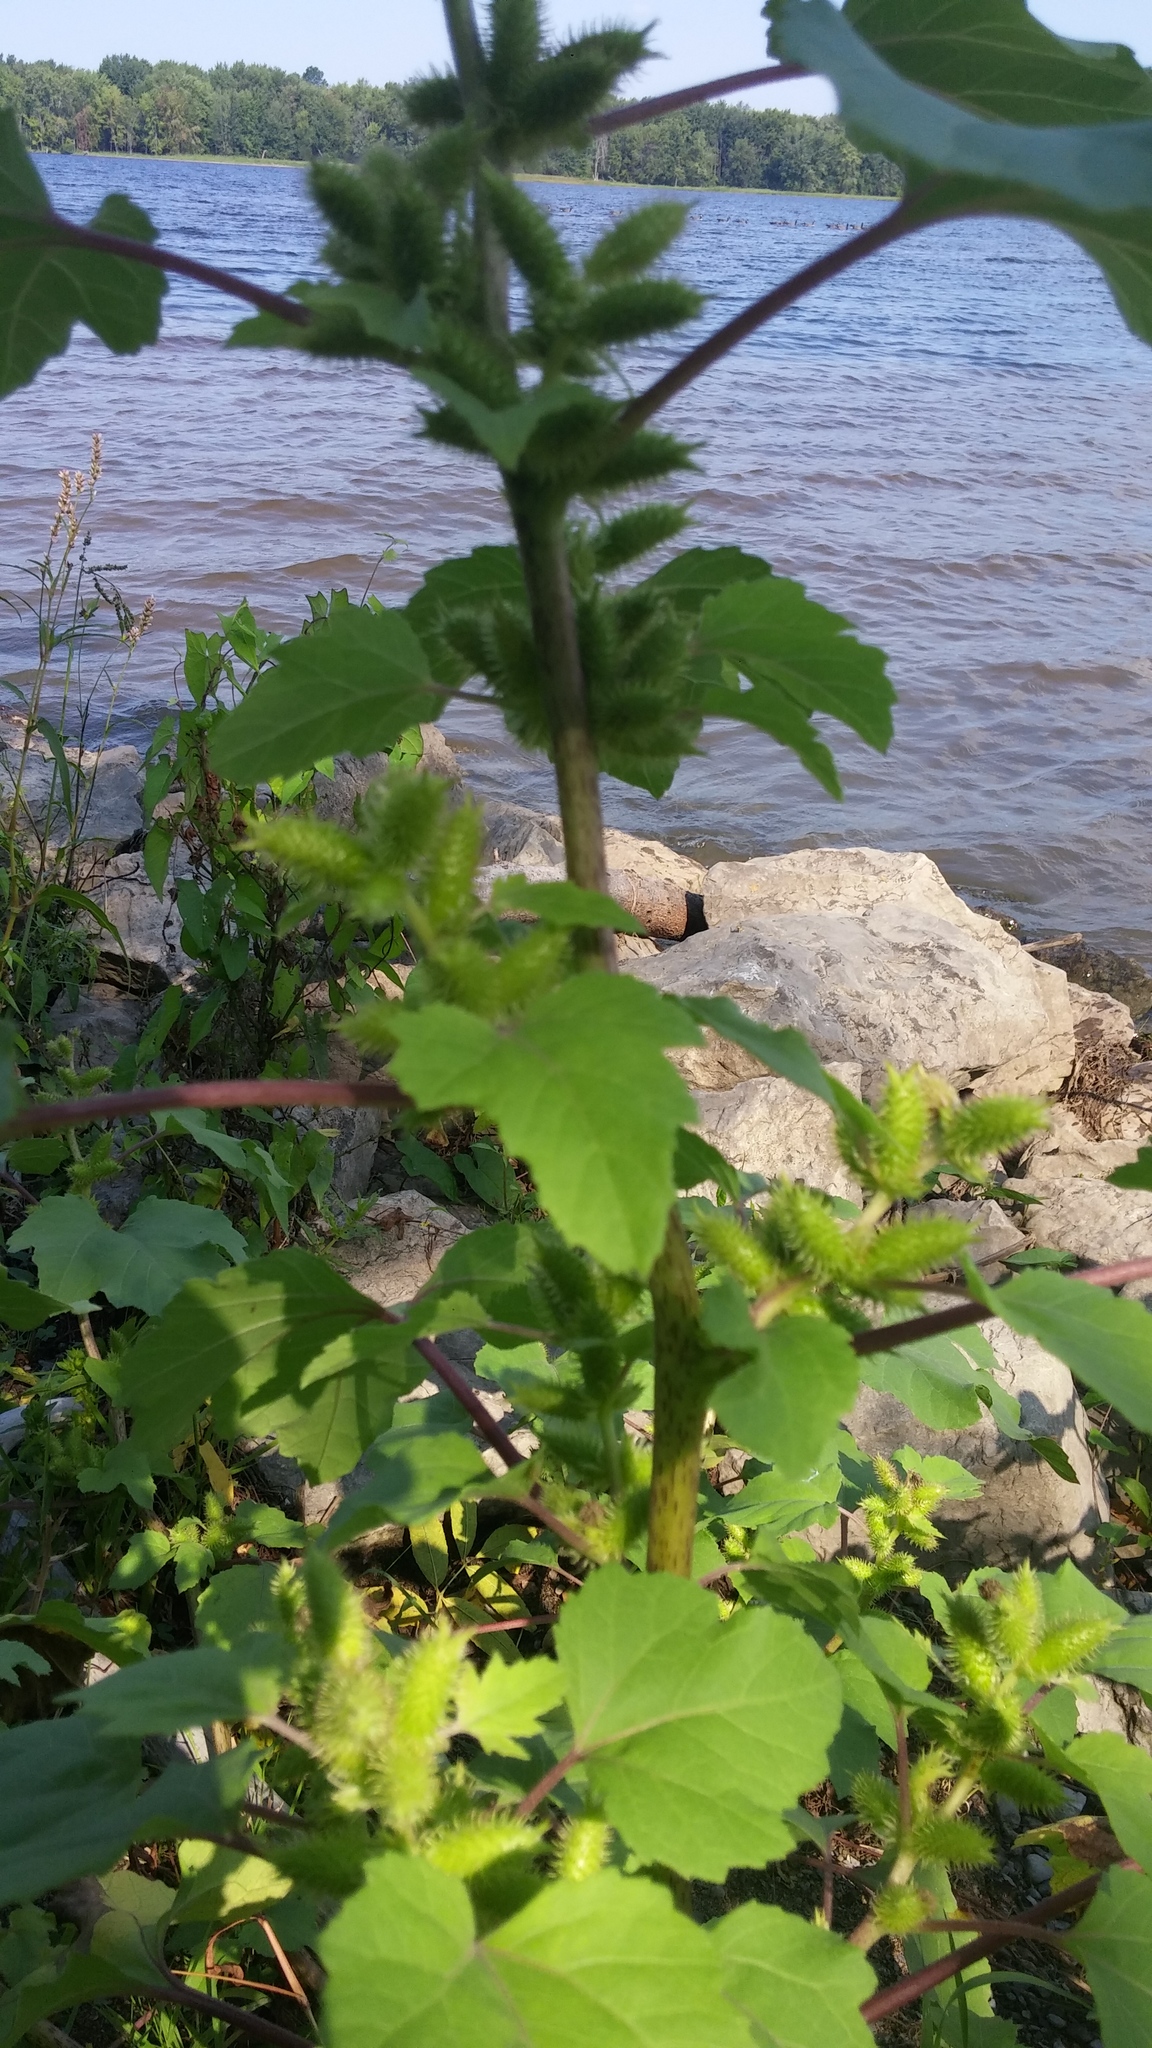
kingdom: Plantae
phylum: Tracheophyta
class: Magnoliopsida
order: Asterales
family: Asteraceae
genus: Xanthium
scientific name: Xanthium strumarium
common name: Rough cocklebur
